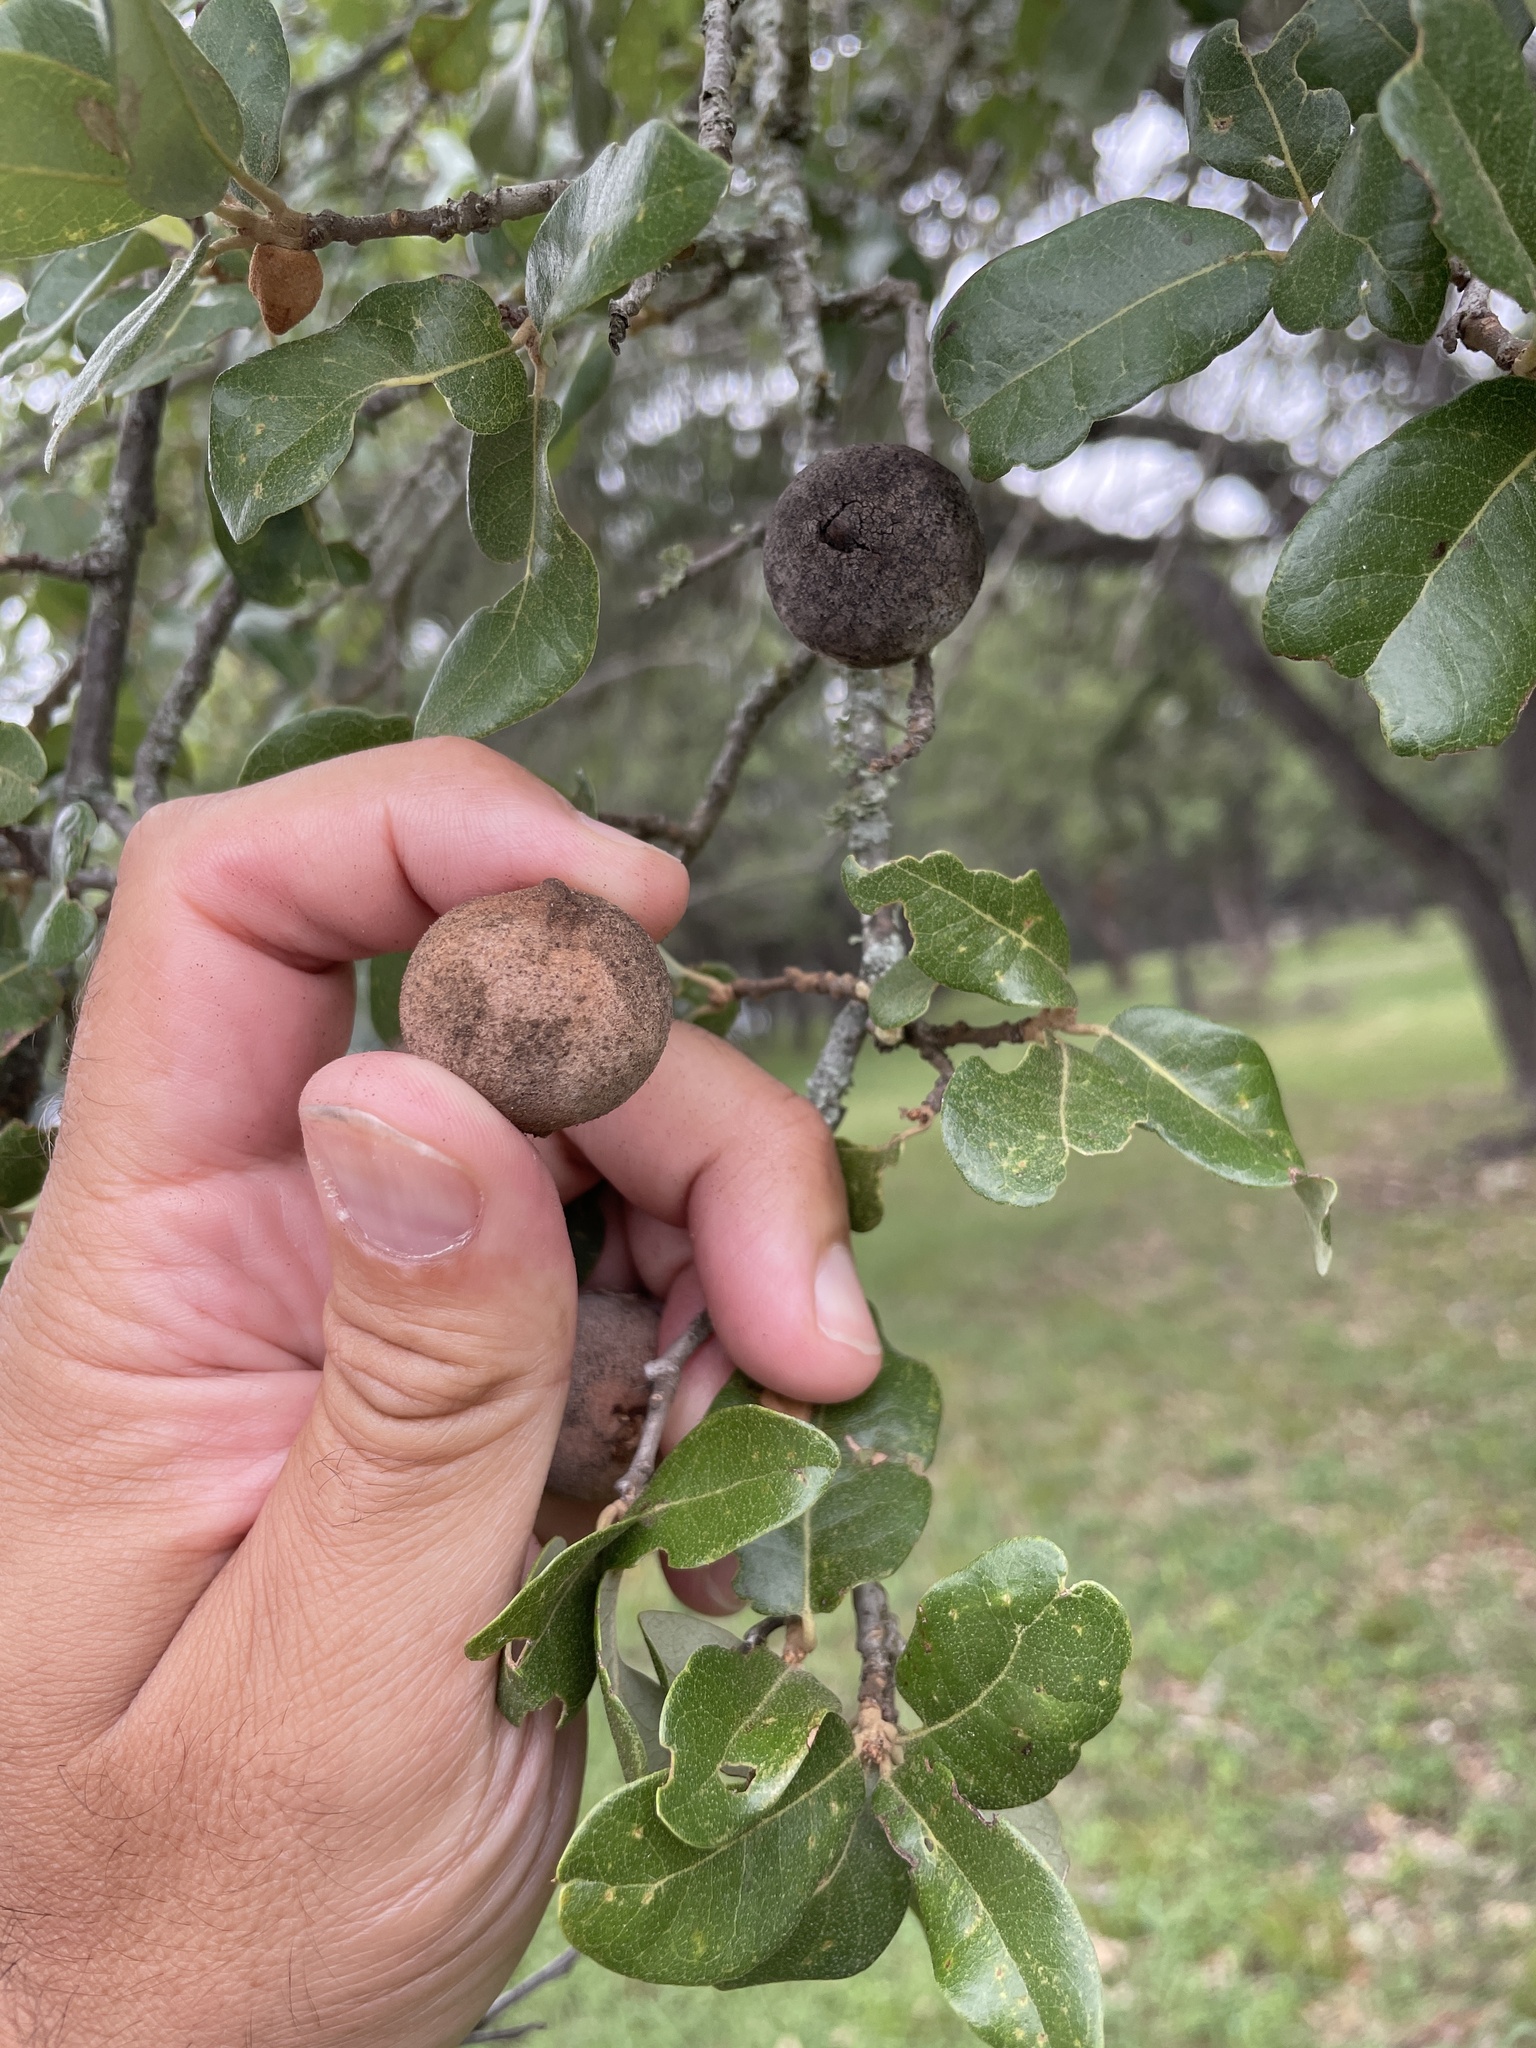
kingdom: Animalia
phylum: Arthropoda
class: Insecta
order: Hymenoptera
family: Cynipidae
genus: Disholcaspis
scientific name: Disholcaspis
